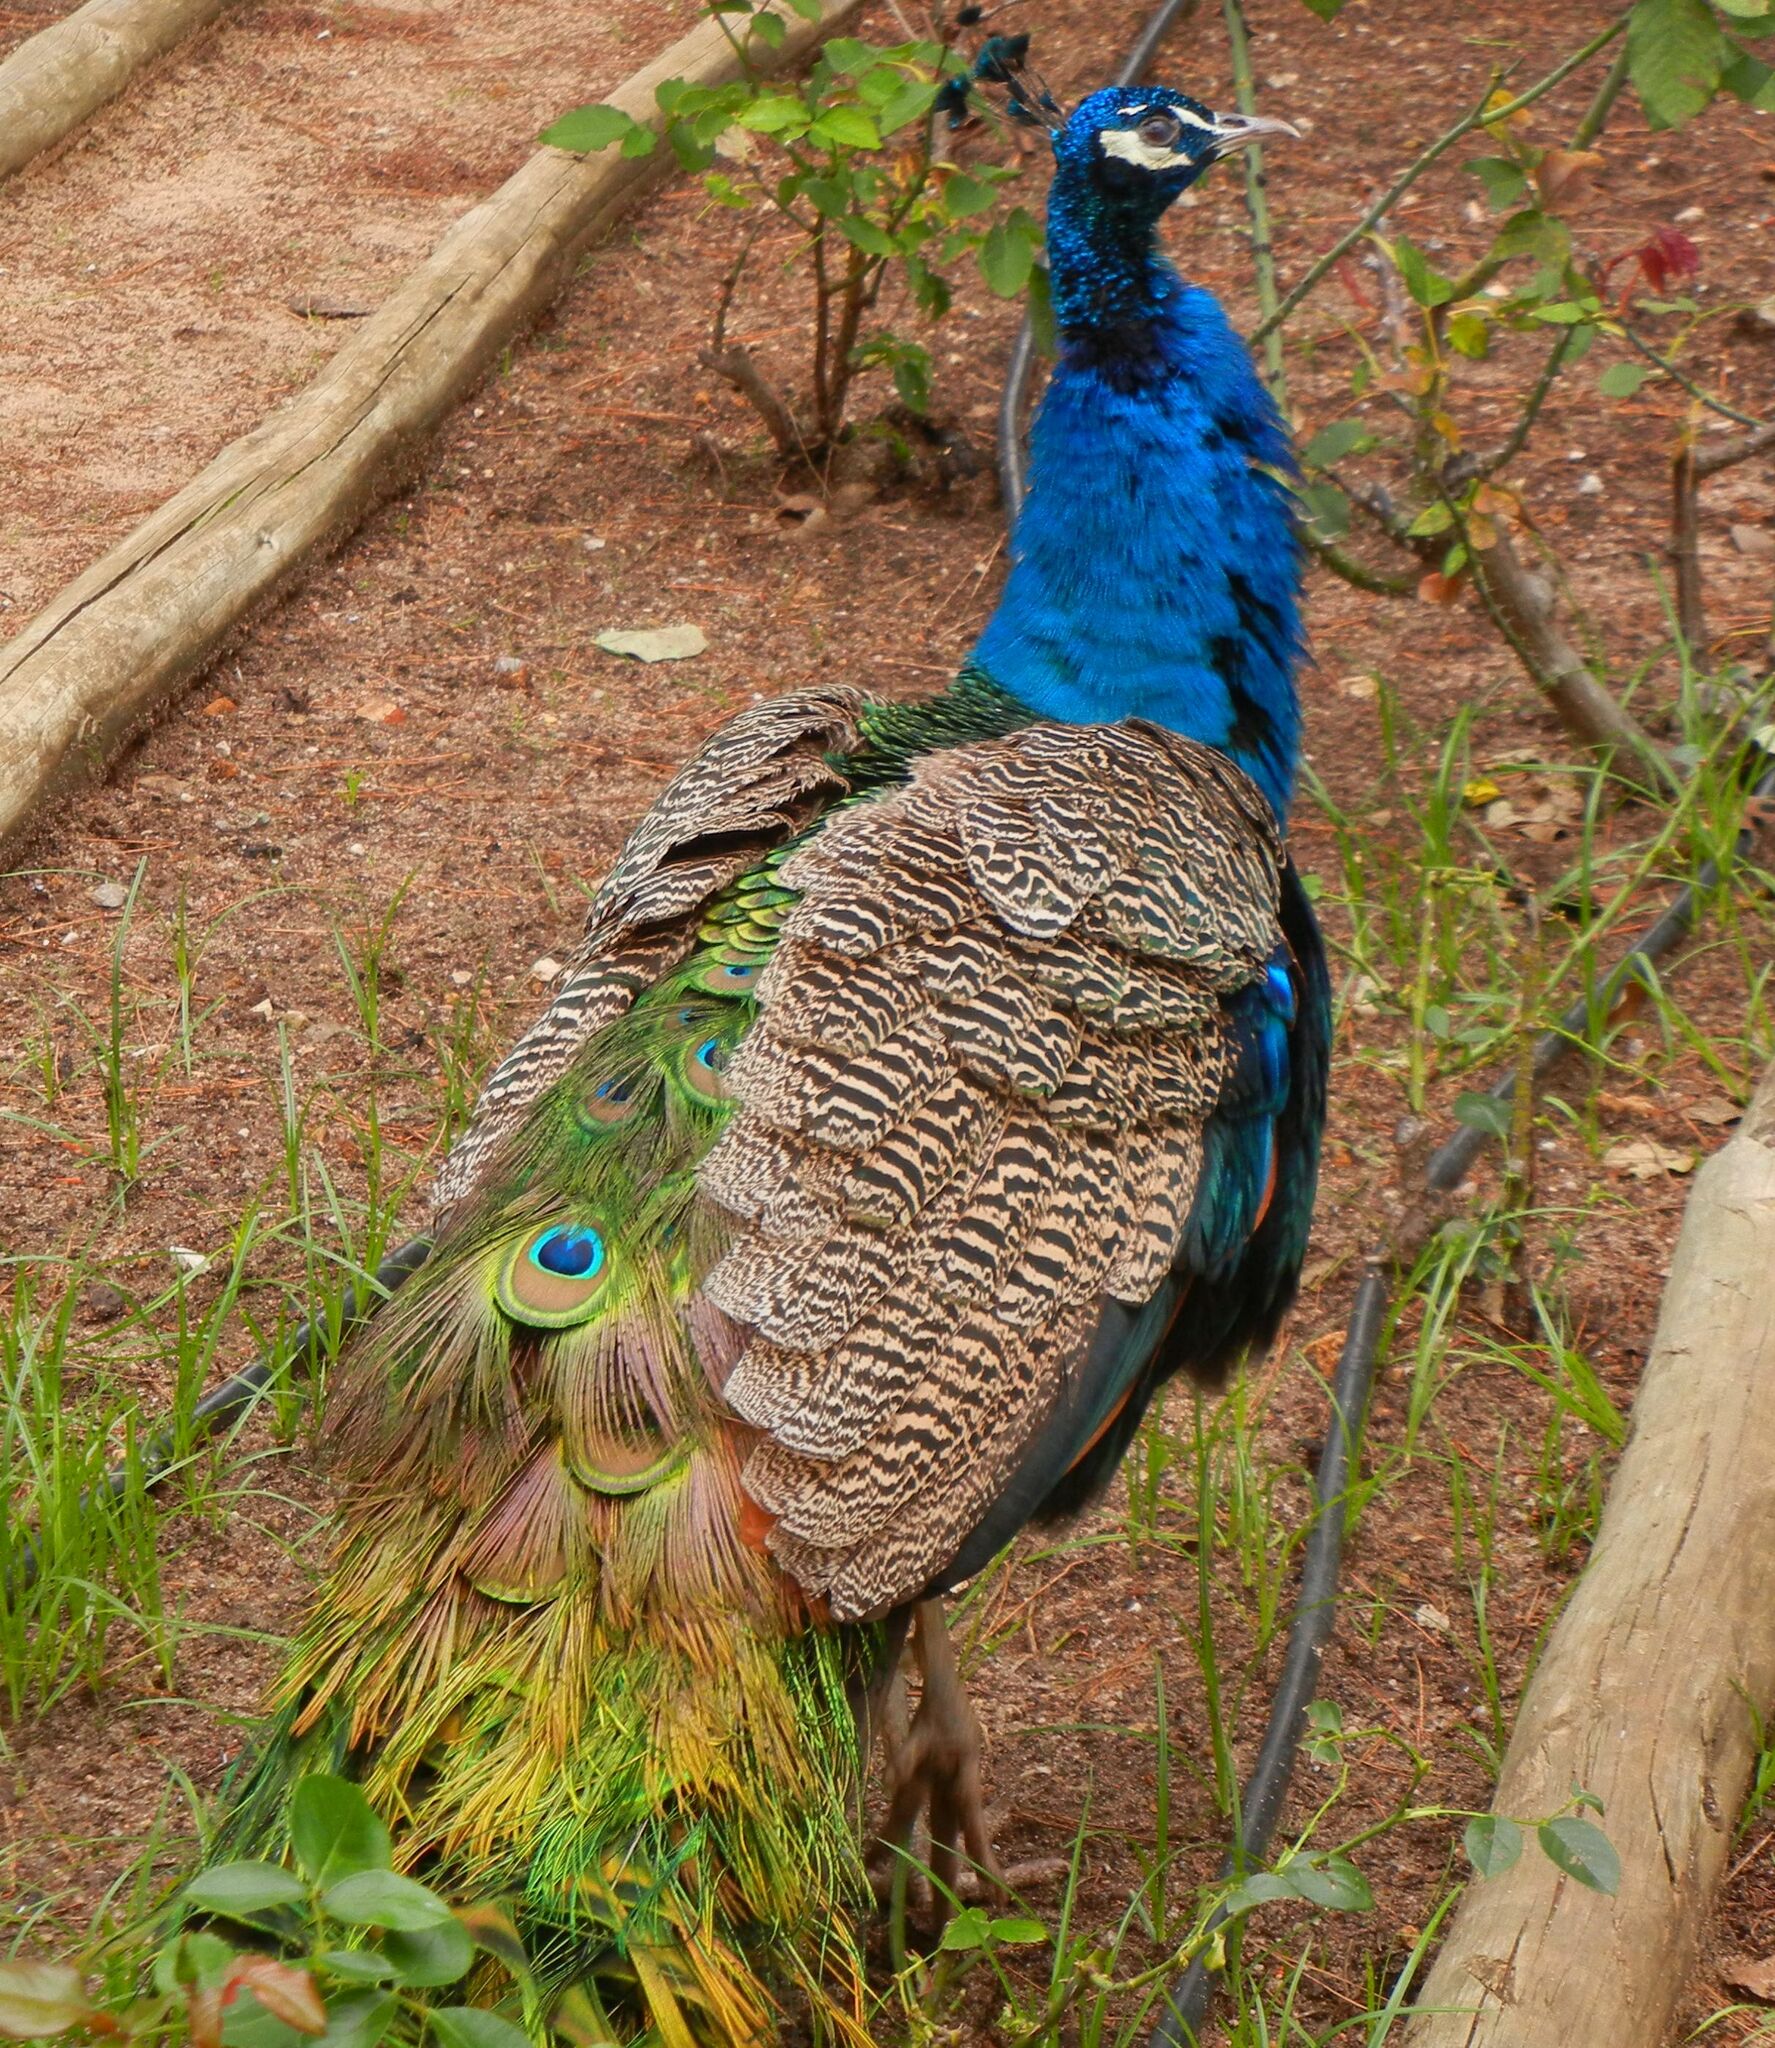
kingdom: Animalia
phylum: Chordata
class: Aves
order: Galliformes
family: Phasianidae
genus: Pavo
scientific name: Pavo cristatus
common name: Indian peafowl
